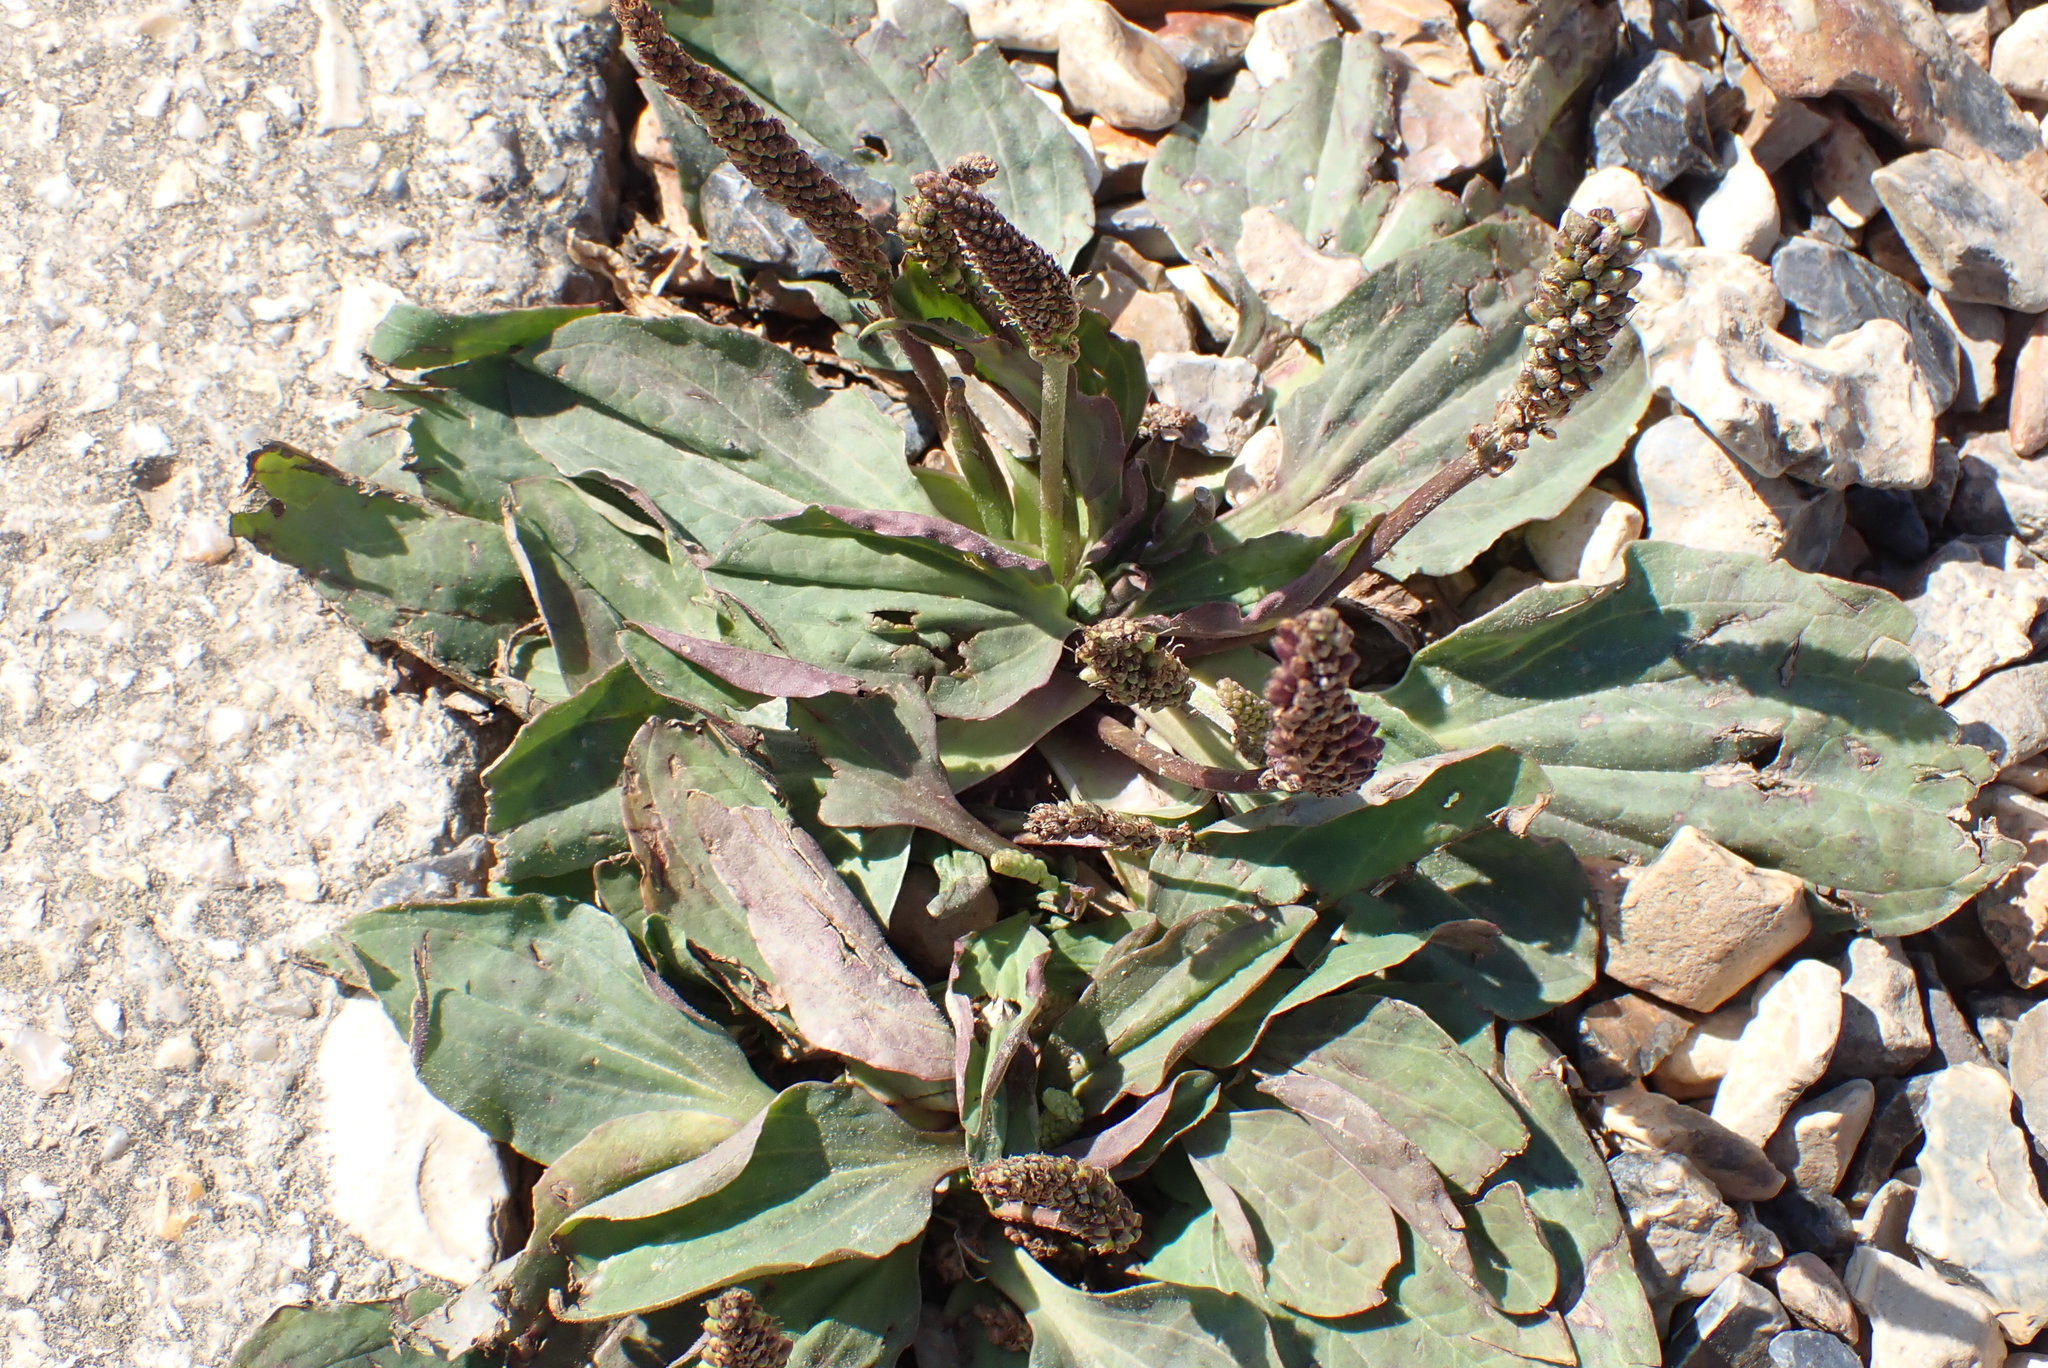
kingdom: Plantae
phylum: Tracheophyta
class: Magnoliopsida
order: Lamiales
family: Plantaginaceae
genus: Plantago
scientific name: Plantago major
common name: Common plantain
